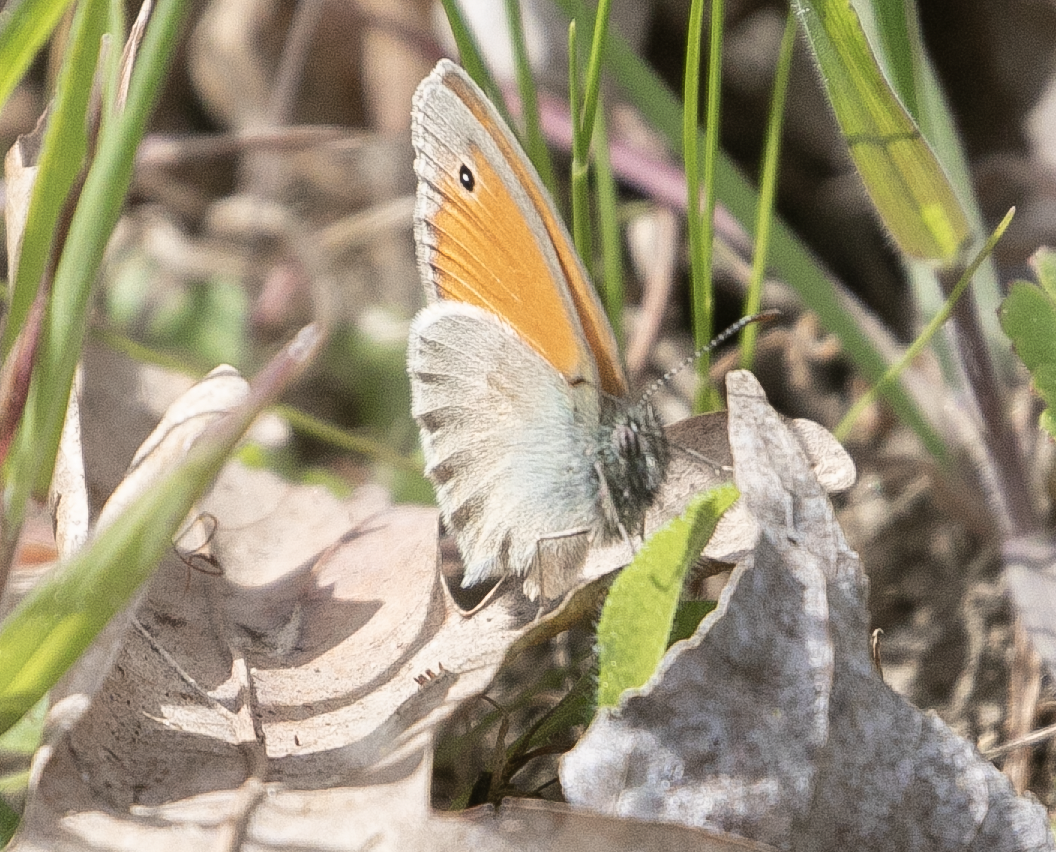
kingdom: Animalia
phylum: Arthropoda
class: Insecta
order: Lepidoptera
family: Nymphalidae
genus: Coenonympha
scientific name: Coenonympha pamphilus
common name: Small heath
